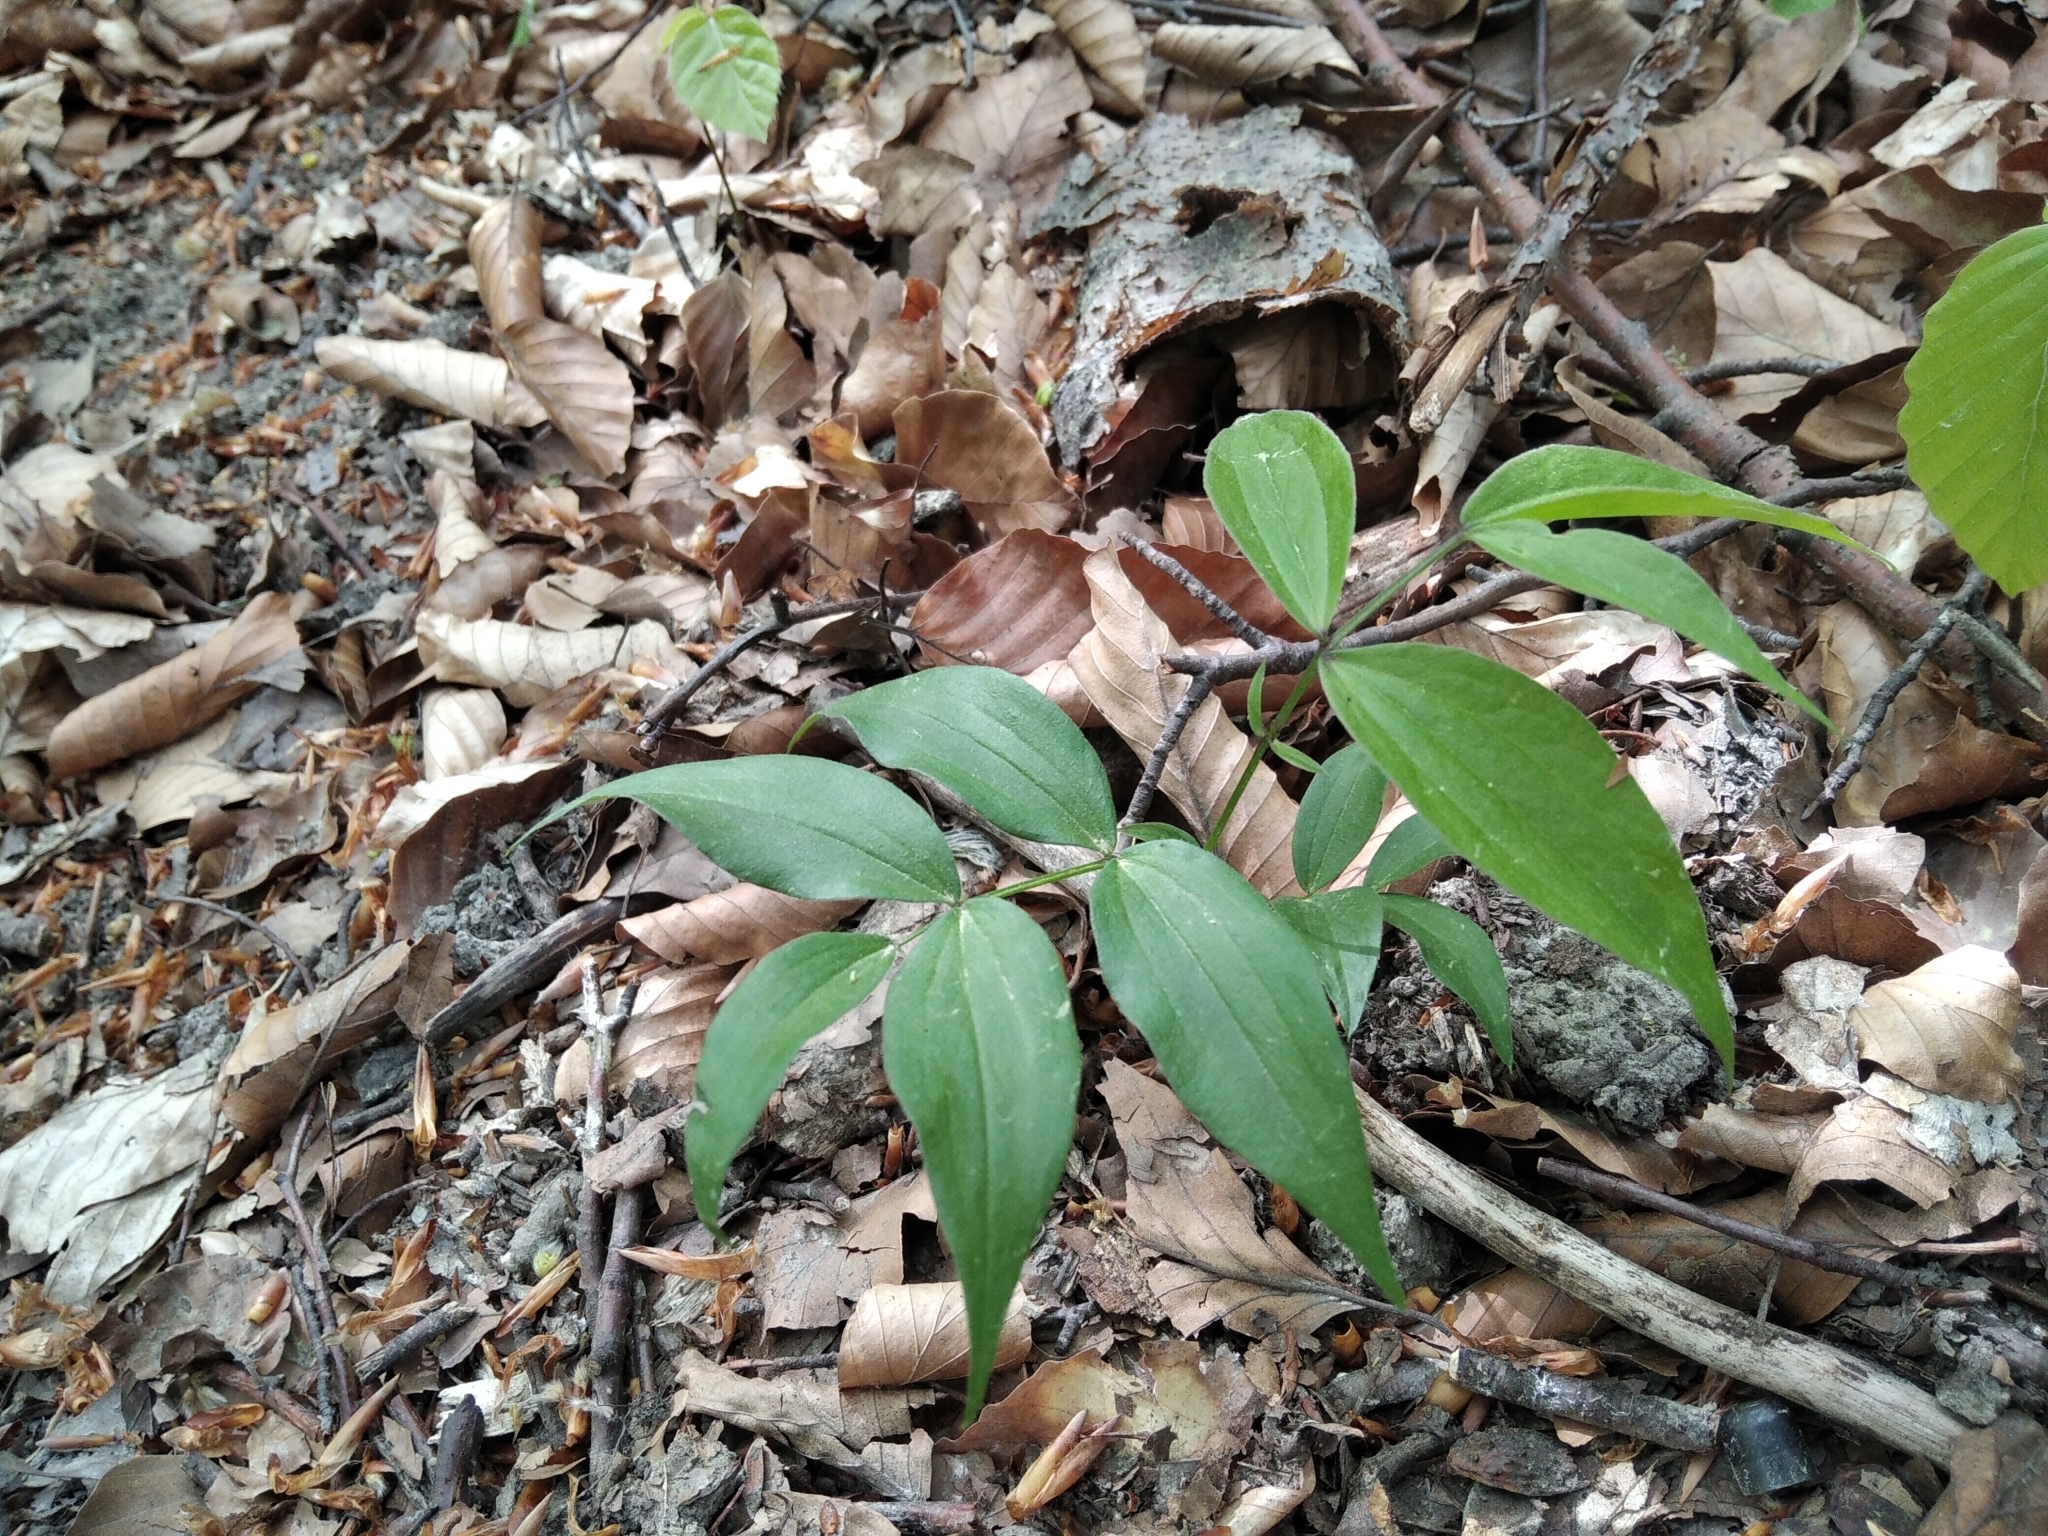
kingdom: Plantae
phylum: Tracheophyta
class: Magnoliopsida
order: Fabales
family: Fabaceae
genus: Lathyrus
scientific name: Lathyrus vernus
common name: Spring pea
